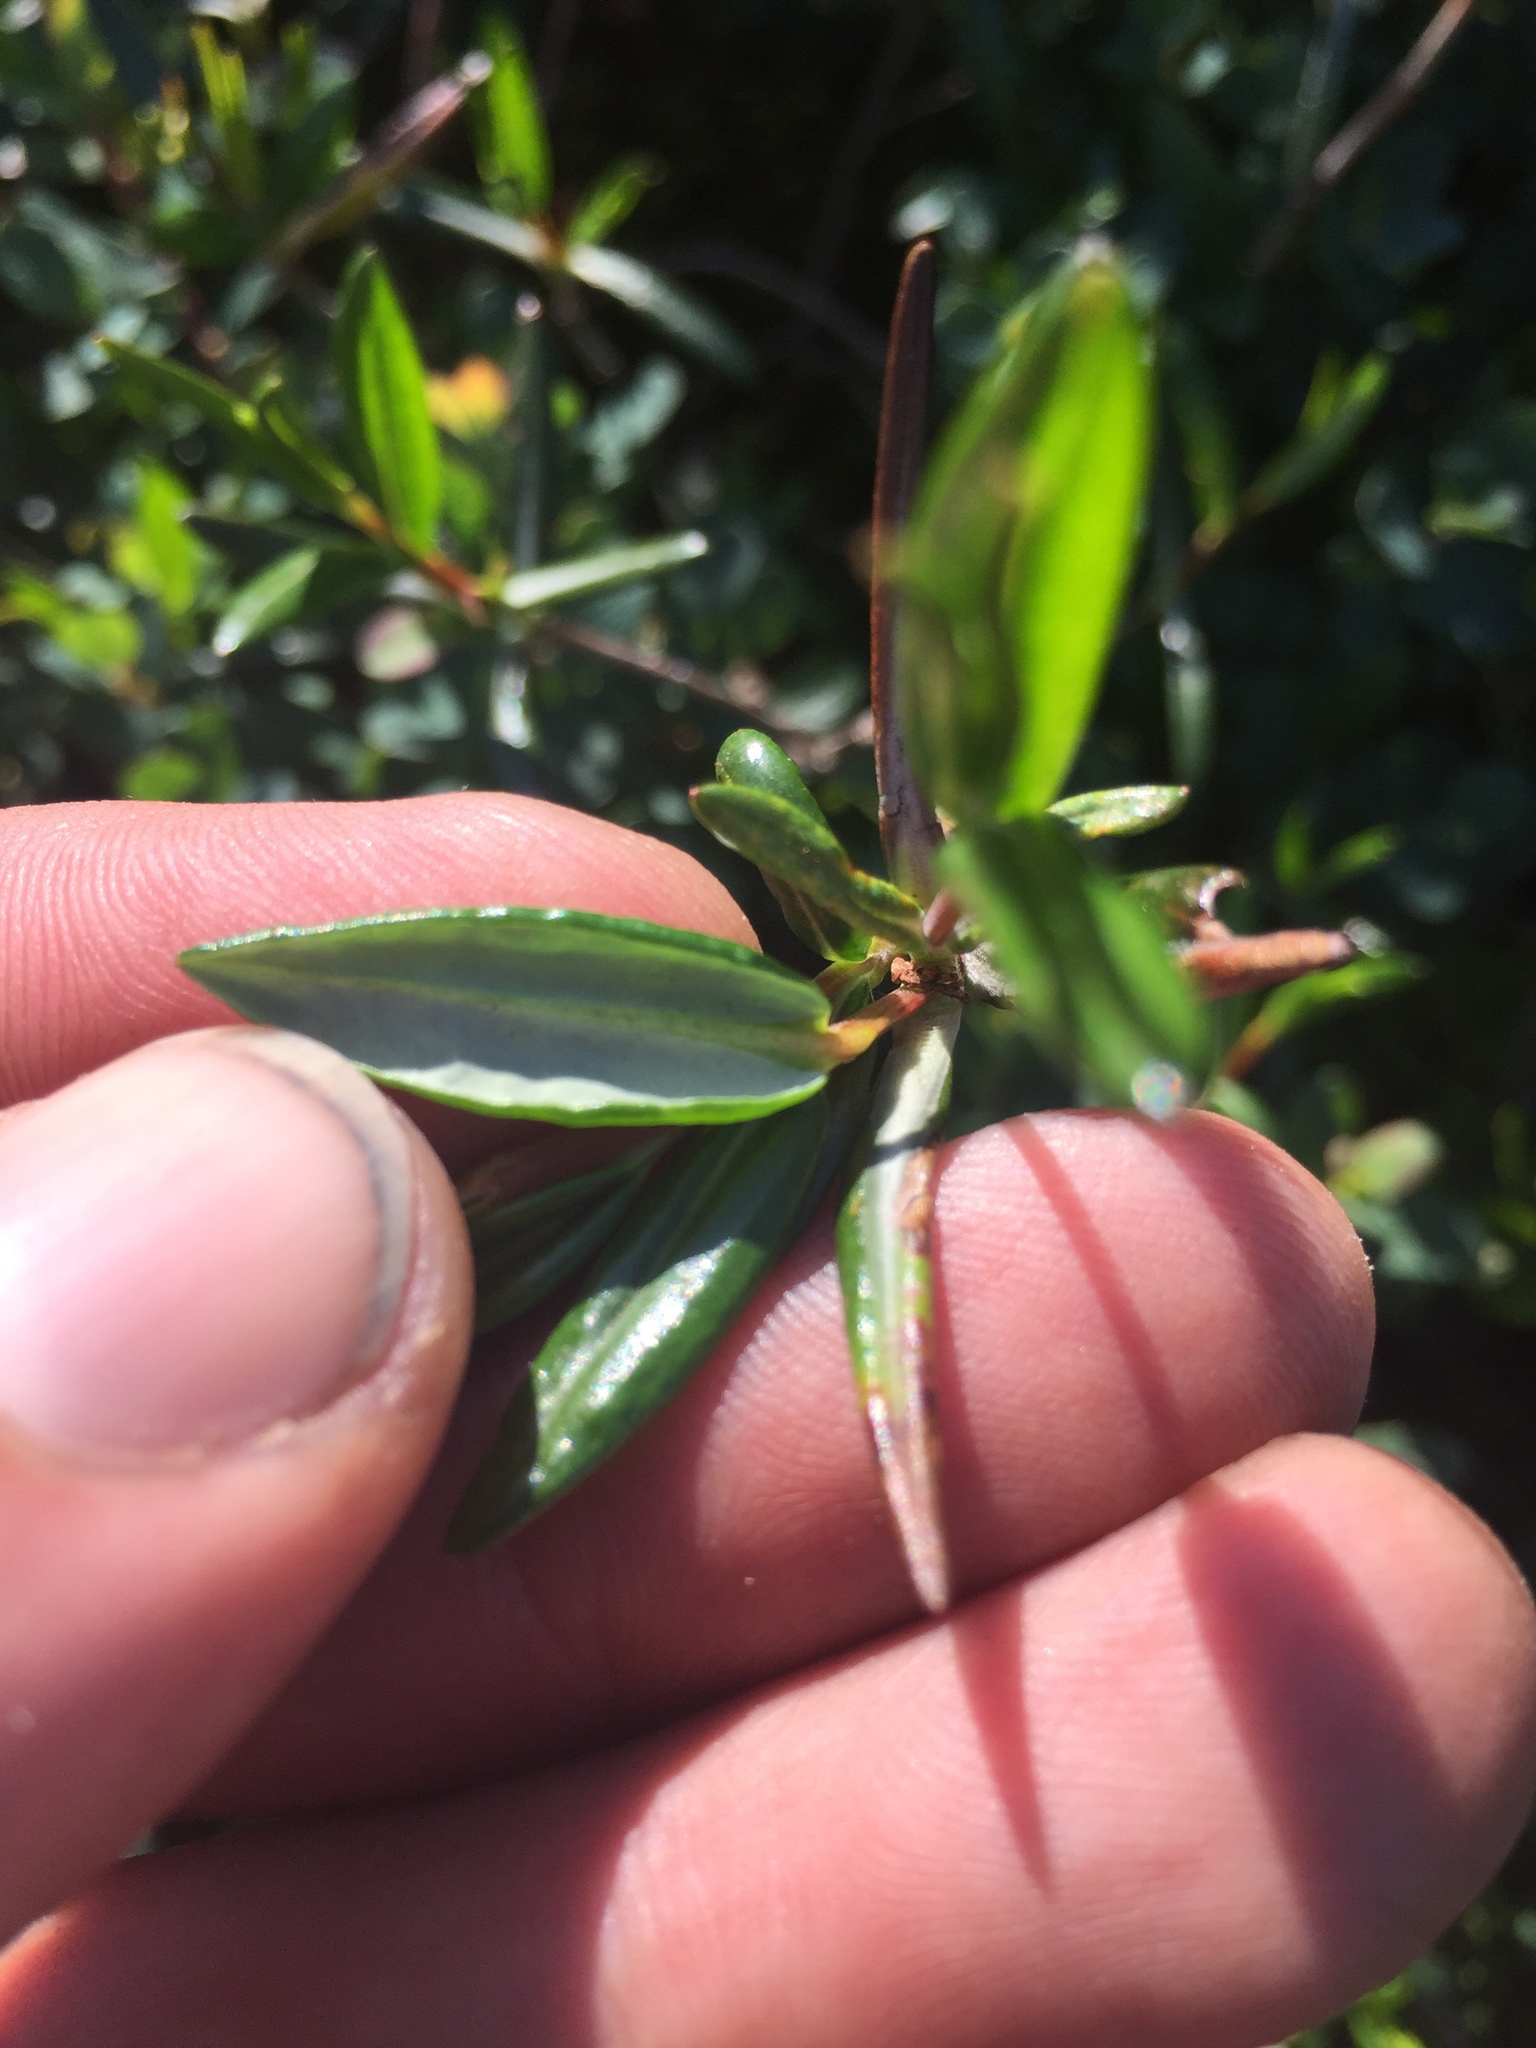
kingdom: Plantae
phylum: Tracheophyta
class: Magnoliopsida
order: Ericales
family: Ericaceae
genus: Kalmia
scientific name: Kalmia polifolia
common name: Bog-laurel
